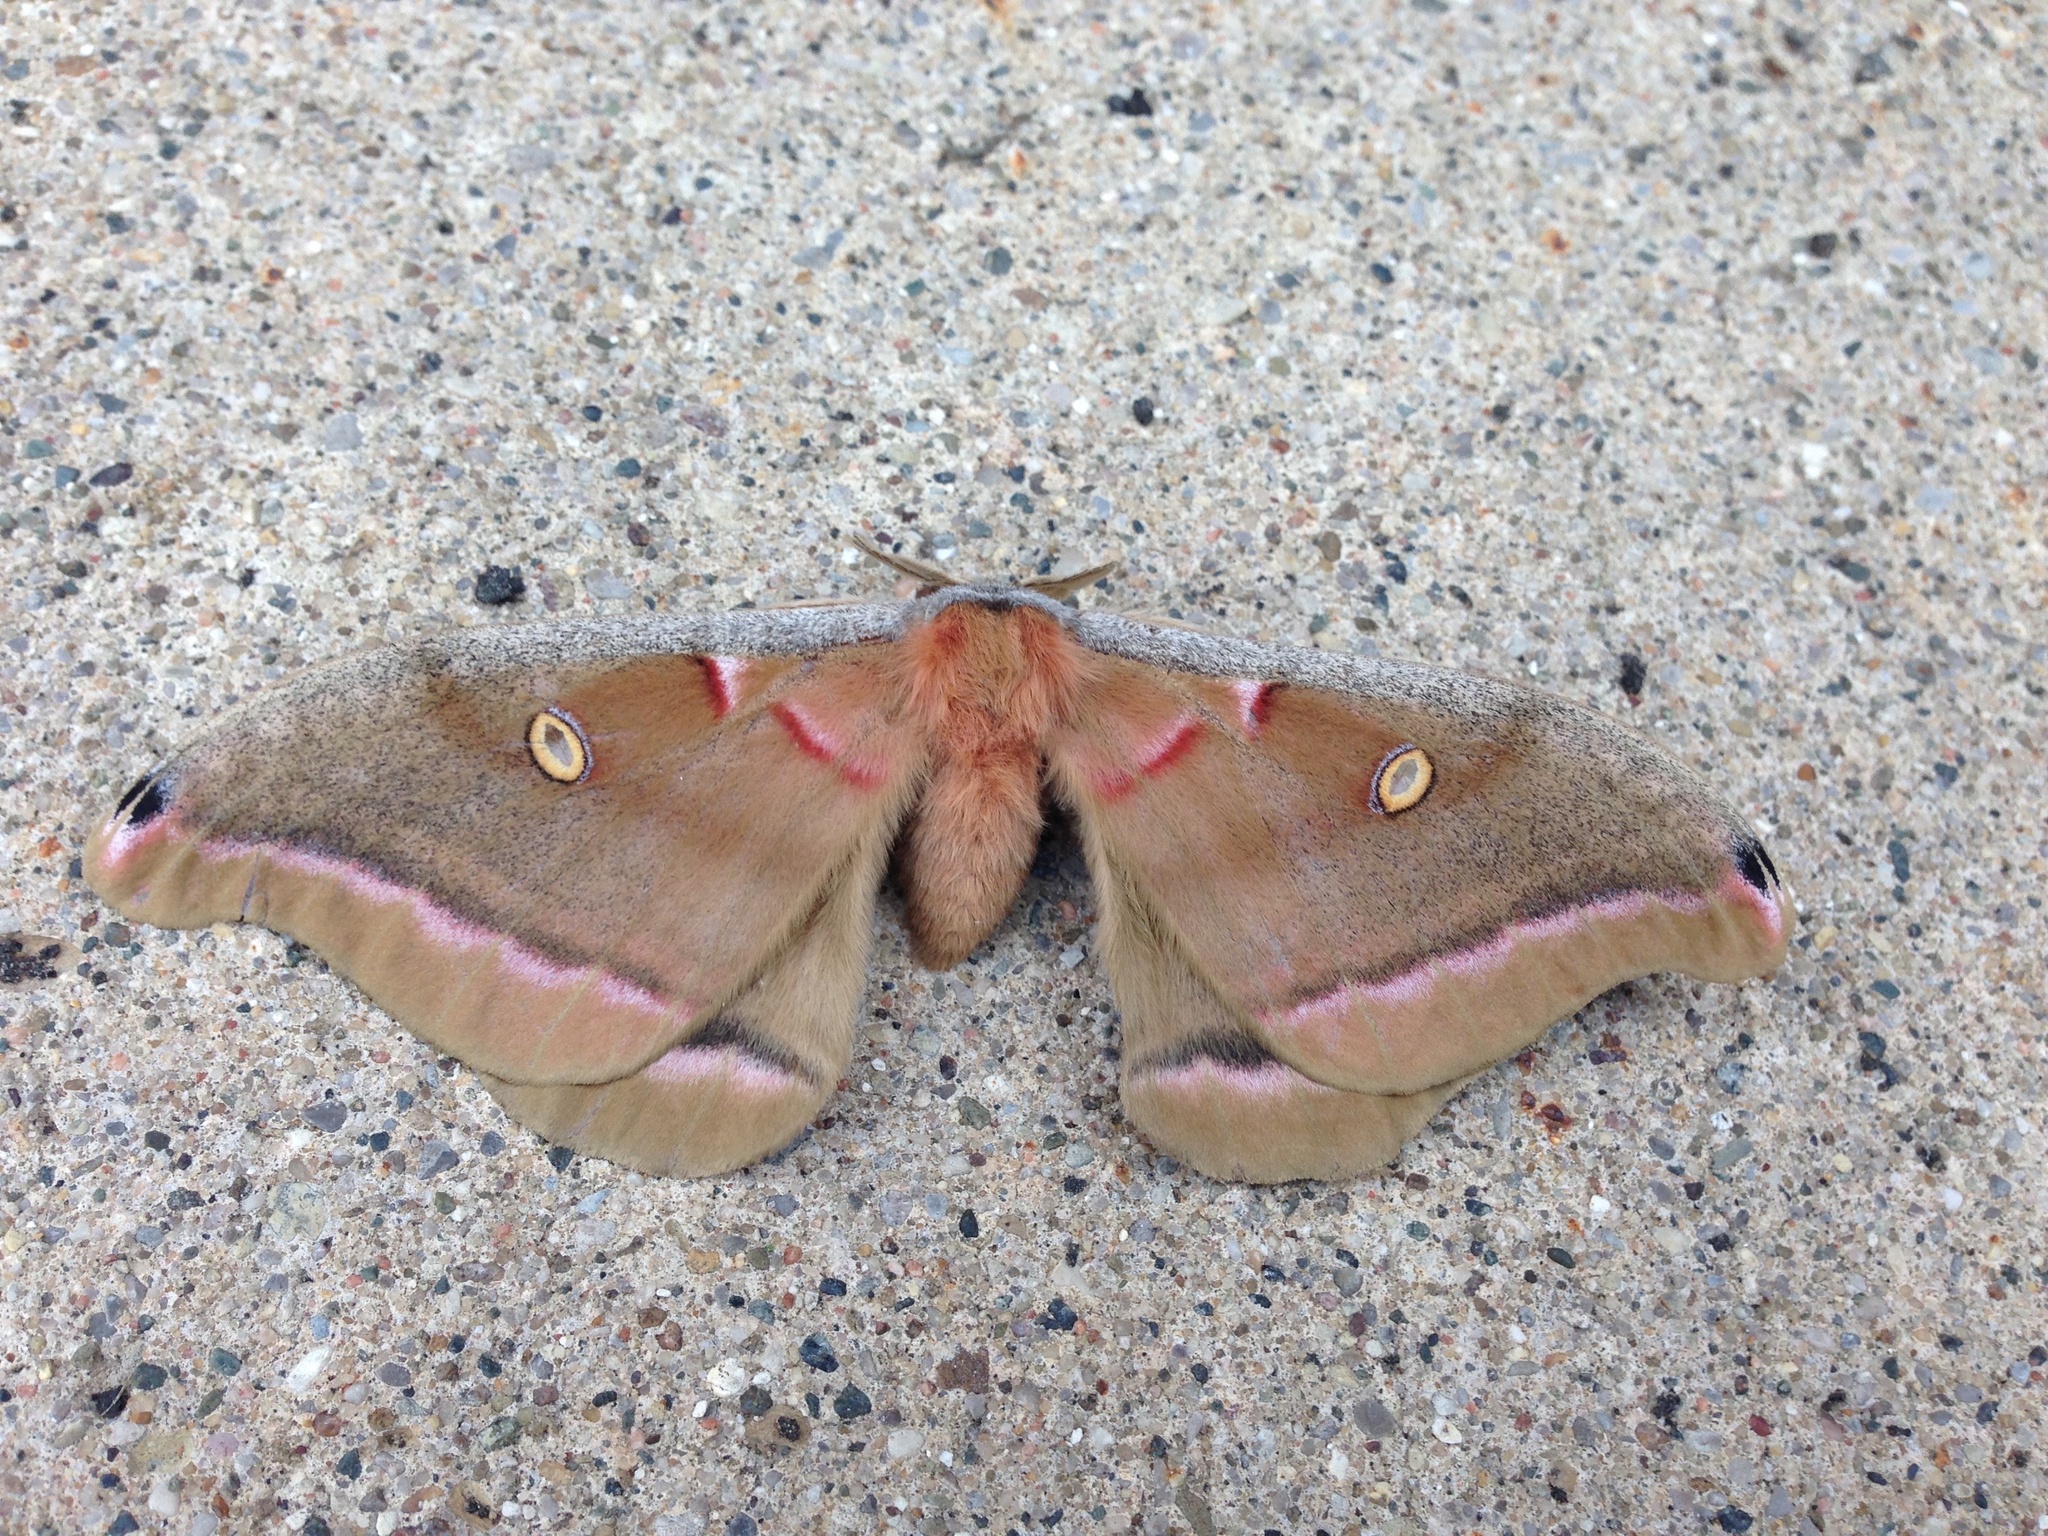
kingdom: Animalia
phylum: Arthropoda
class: Insecta
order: Lepidoptera
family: Saturniidae
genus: Antheraea
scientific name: Antheraea polyphemus
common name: Polyphemus moth
